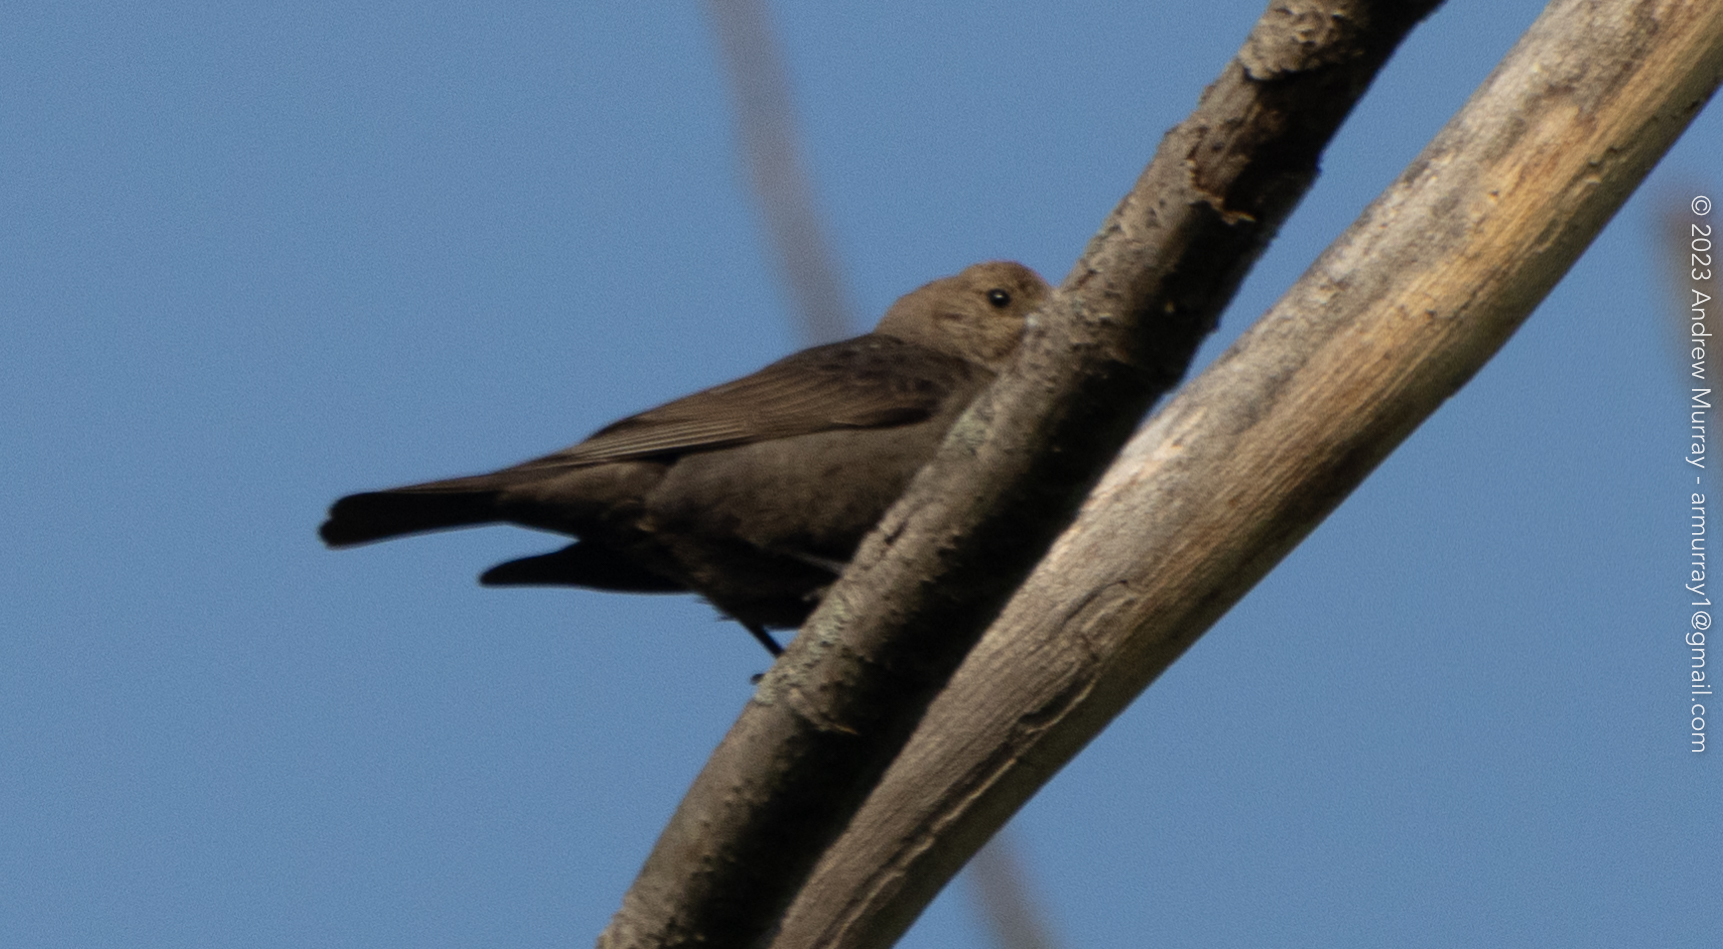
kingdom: Animalia
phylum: Chordata
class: Aves
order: Passeriformes
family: Icteridae
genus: Molothrus
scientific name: Molothrus ater
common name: Brown-headed cowbird
